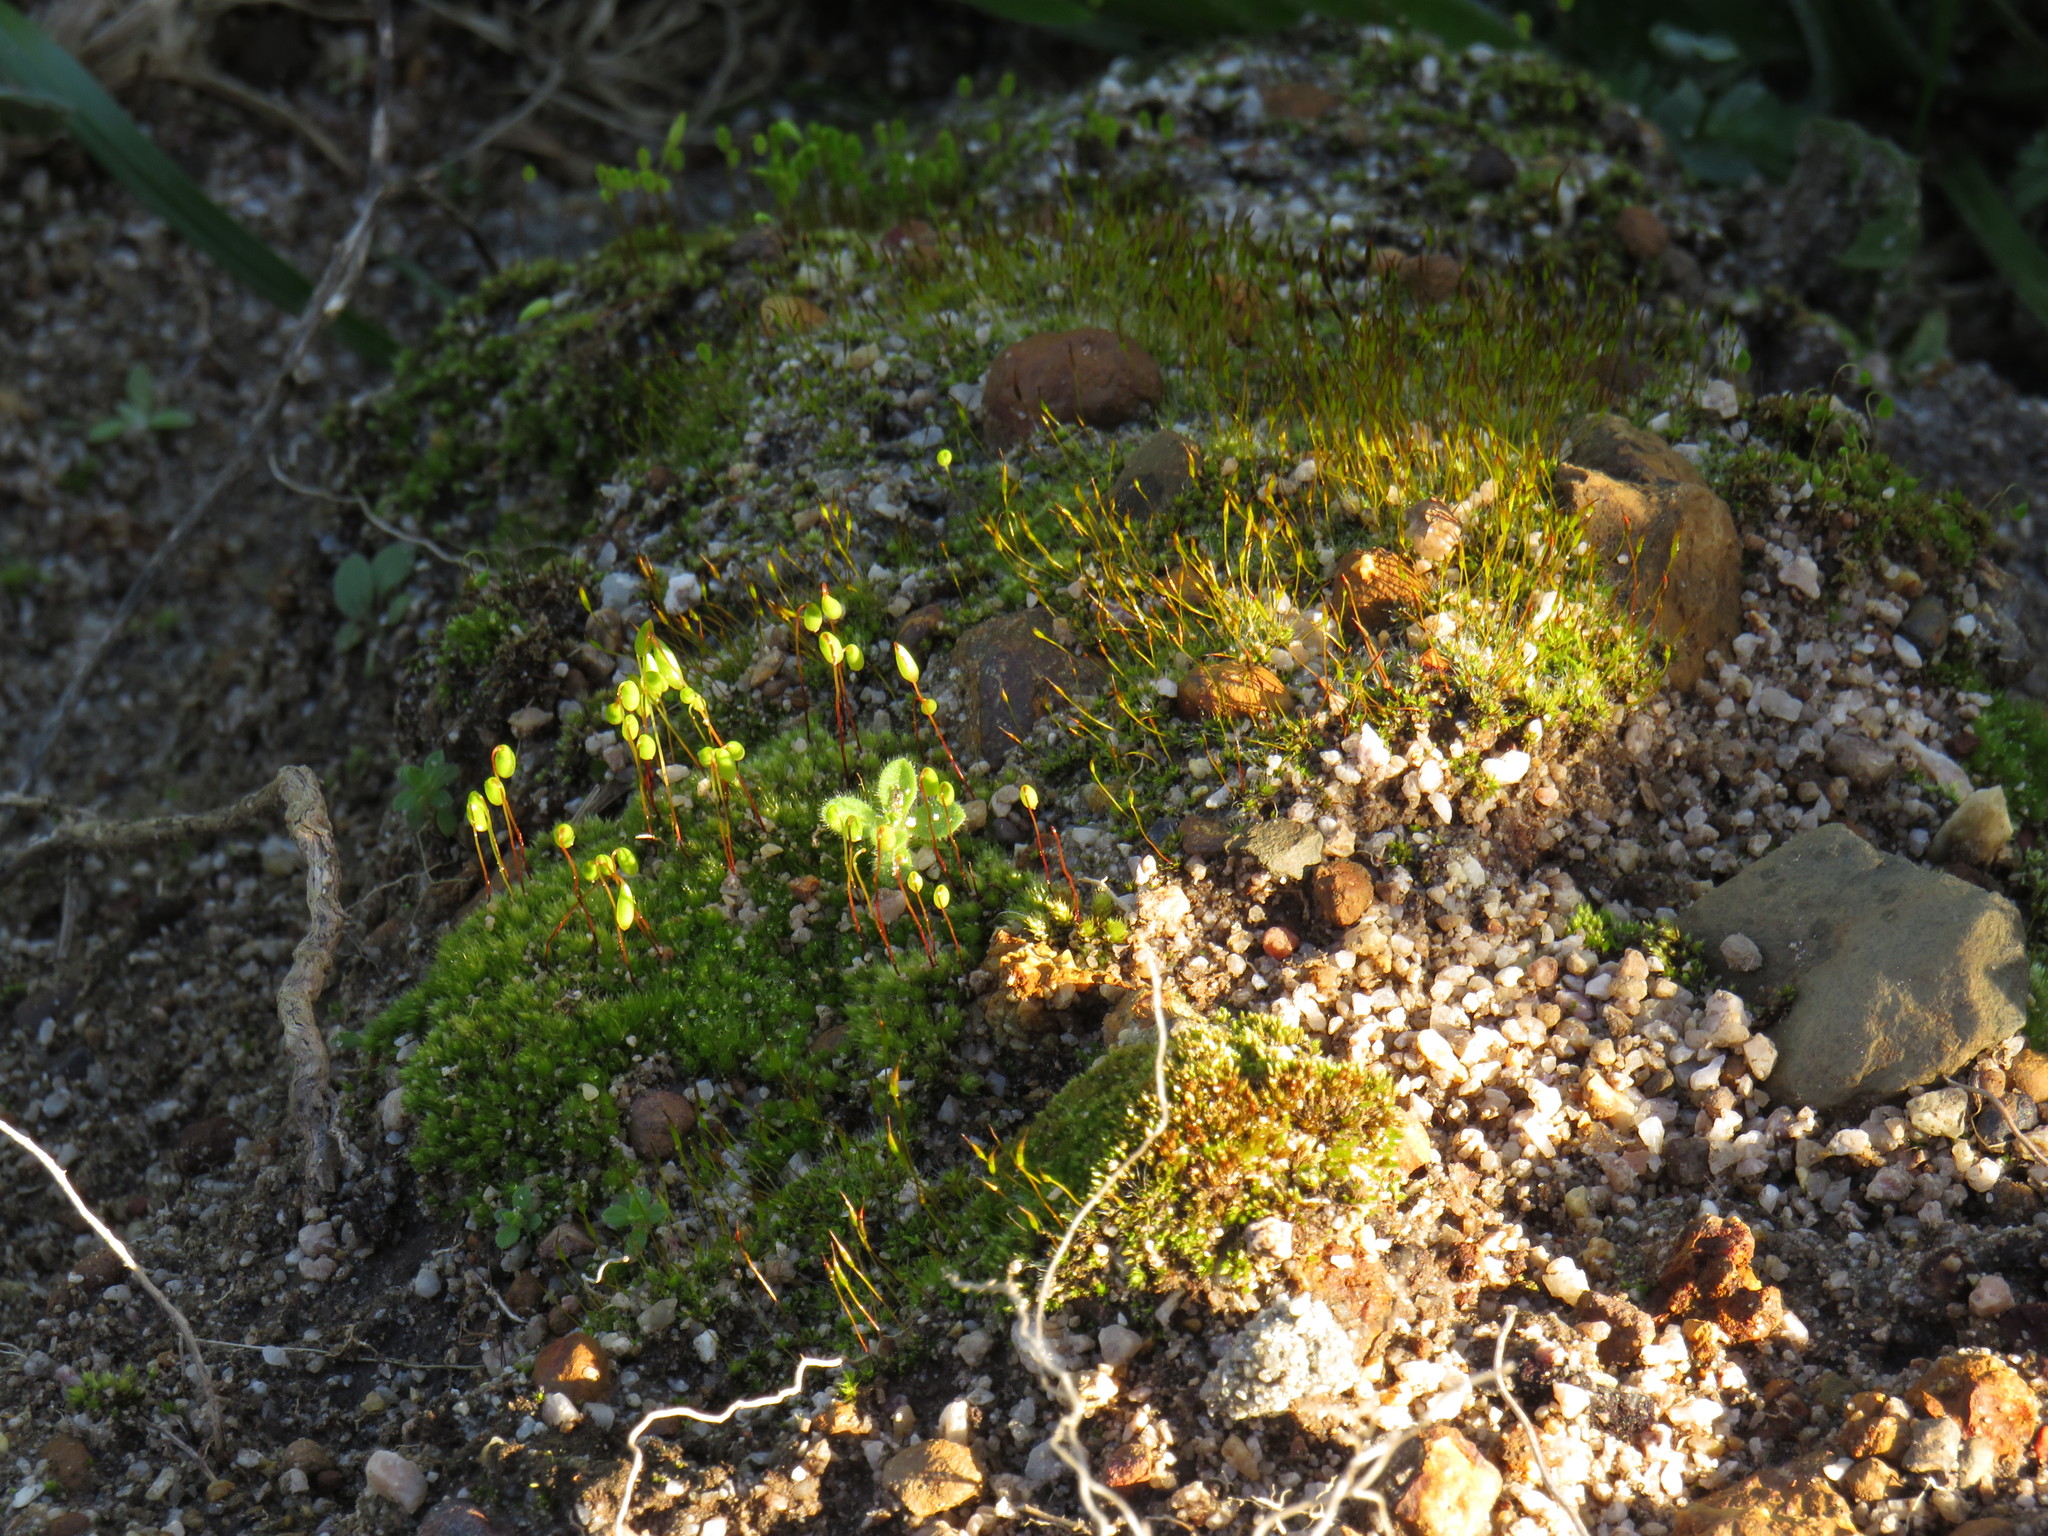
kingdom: Plantae
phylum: Bryophyta
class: Bryopsida
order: Pottiales
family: Pottiaceae
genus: Tortula
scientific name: Tortula muralis
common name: Wall screw-moss
